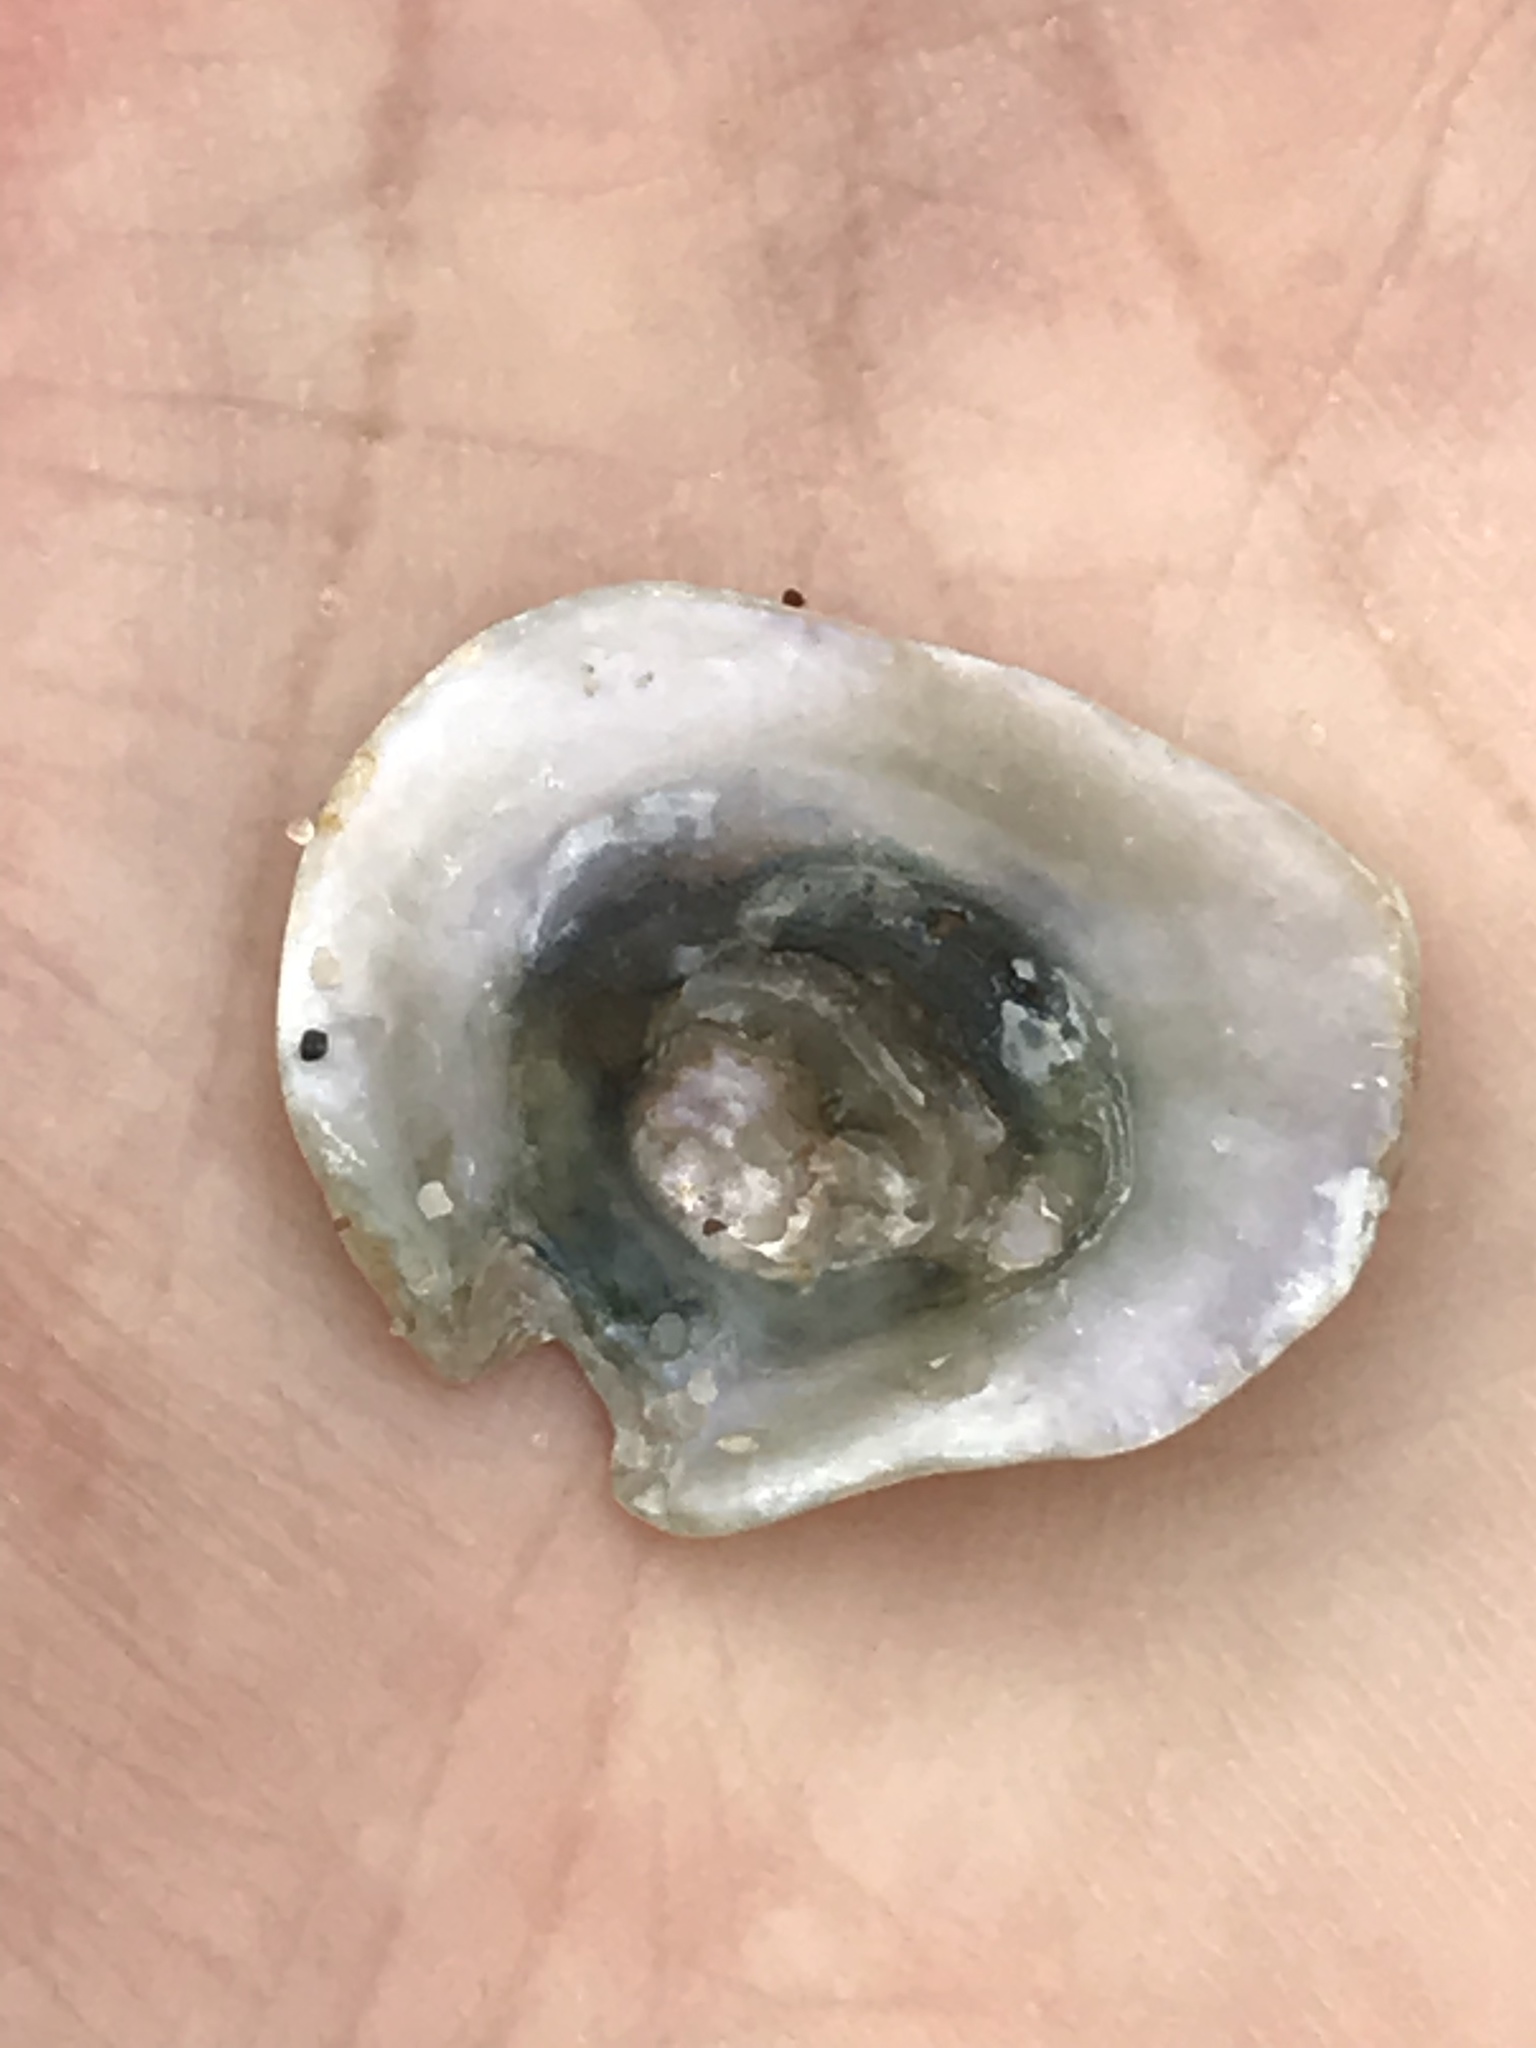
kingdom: Animalia
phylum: Mollusca
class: Bivalvia
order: Pectinida
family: Anomiidae
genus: Pododesmus
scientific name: Pododesmus macrochisma
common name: Alaska jingle
